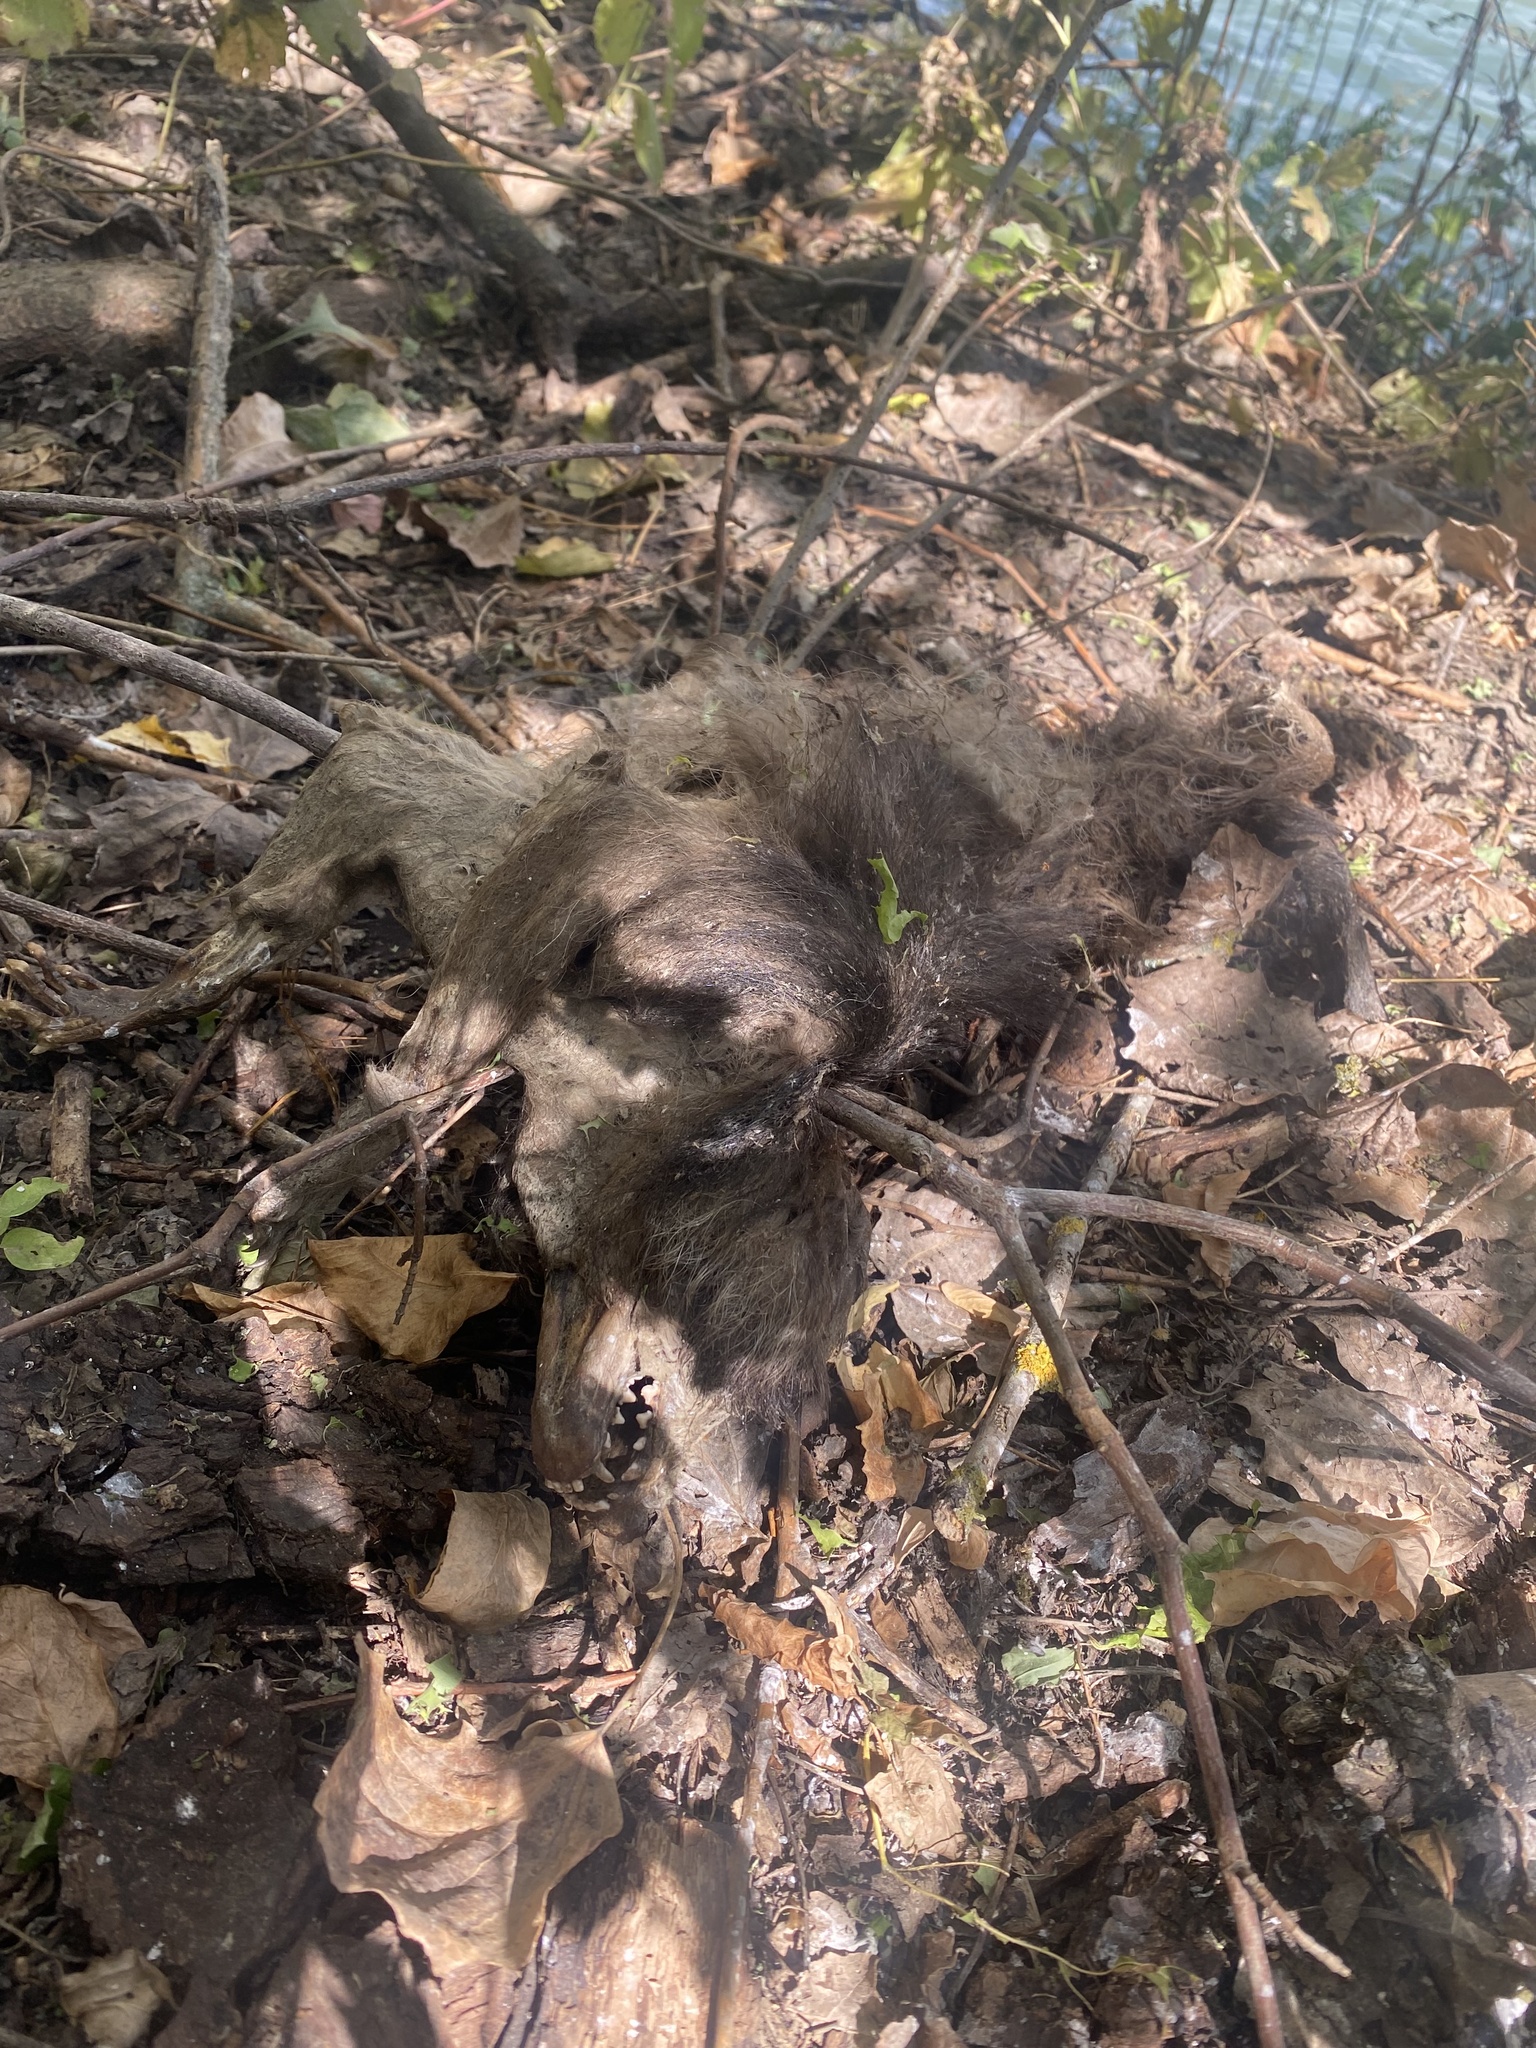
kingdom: Animalia
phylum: Chordata
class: Mammalia
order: Carnivora
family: Procyonidae
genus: Procyon
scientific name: Procyon lotor
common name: Raccoon
